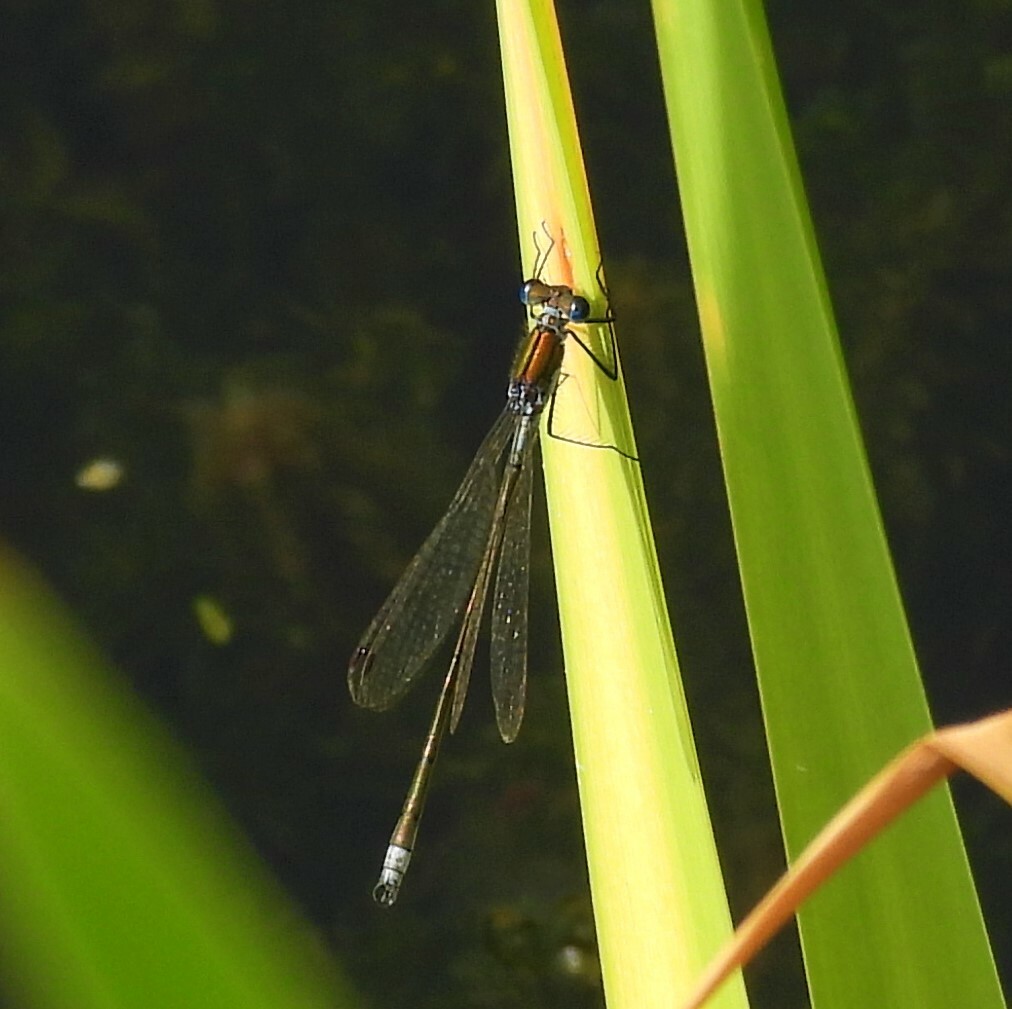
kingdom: Animalia
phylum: Arthropoda
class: Insecta
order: Odonata
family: Lestidae
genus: Lestes
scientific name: Lestes sponsa
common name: Common spreadwing
